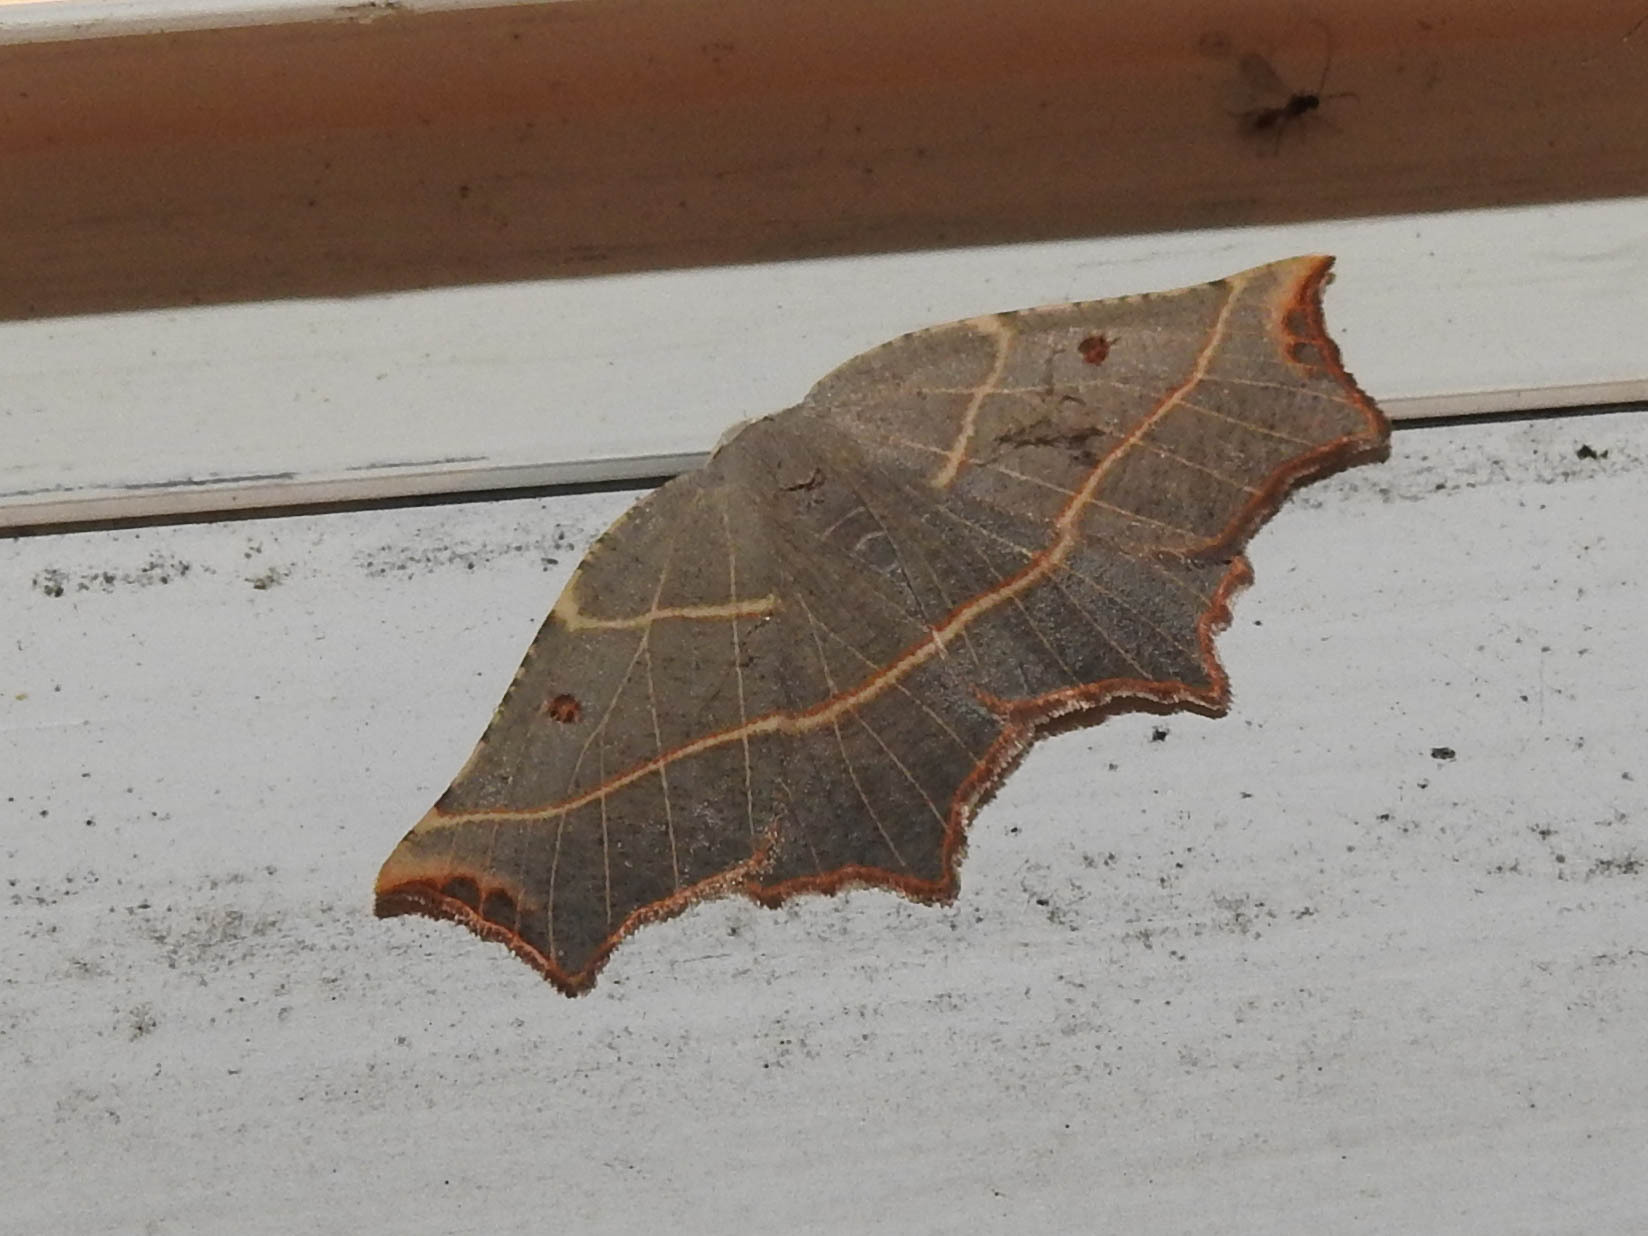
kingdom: Animalia
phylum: Arthropoda
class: Insecta
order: Lepidoptera
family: Geometridae
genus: Metanema
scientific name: Metanema inatomaria
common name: Pale metanema
